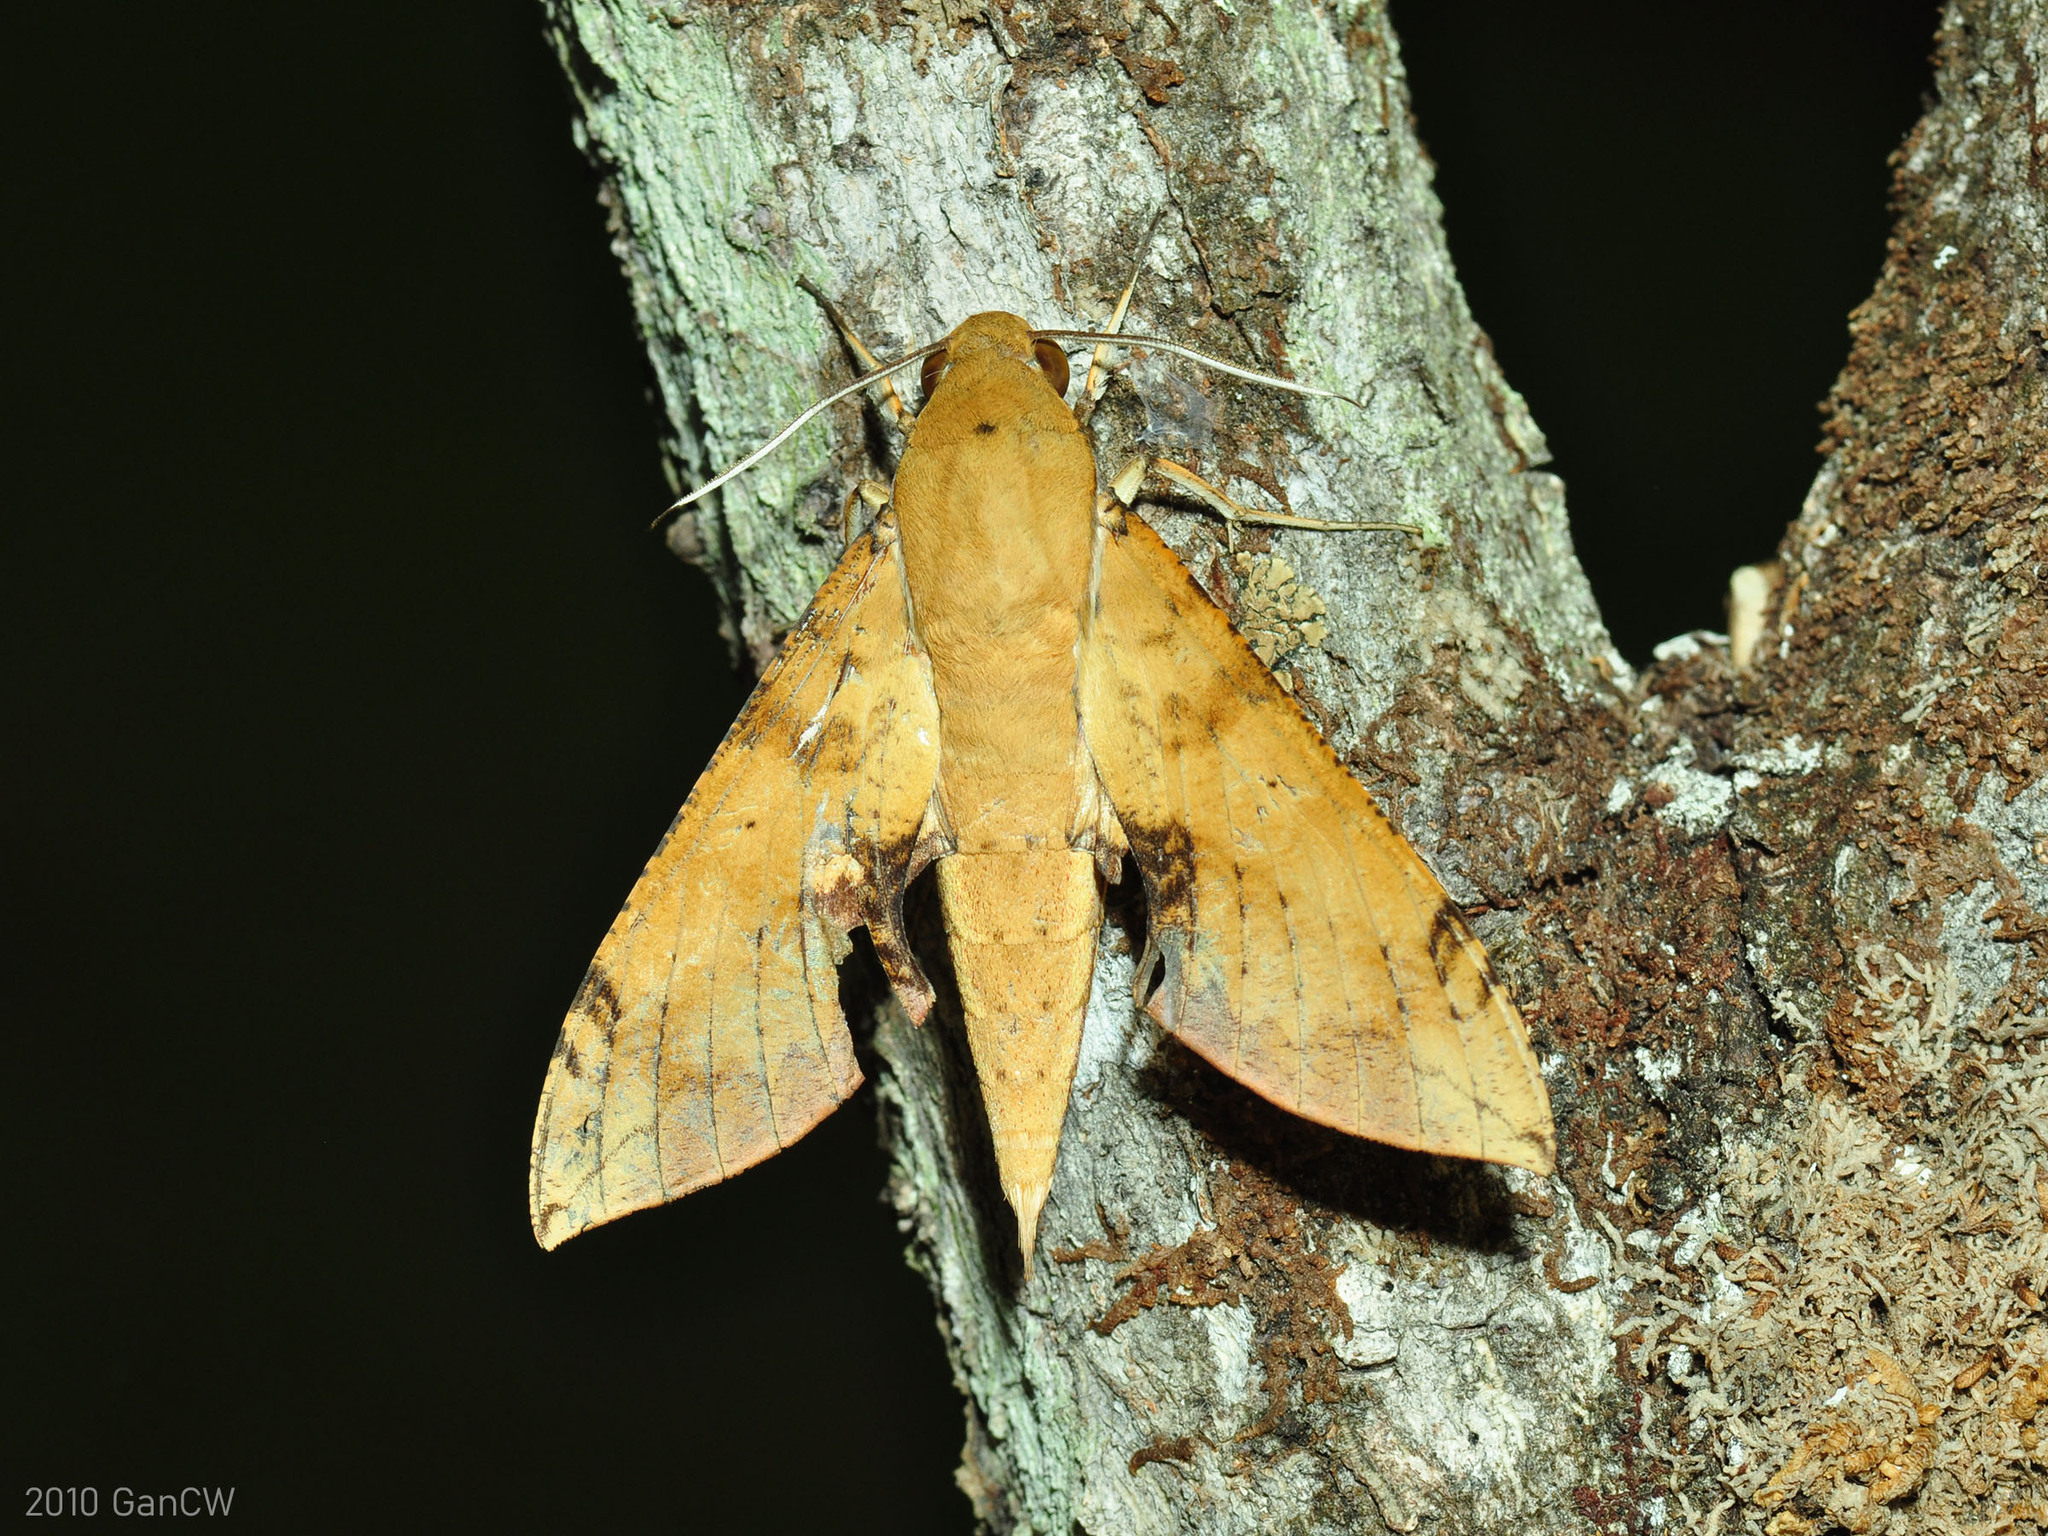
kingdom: Animalia
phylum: Arthropoda
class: Insecta
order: Lepidoptera
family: Sphingidae
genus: Cechenena
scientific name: Cechenena chimaera
